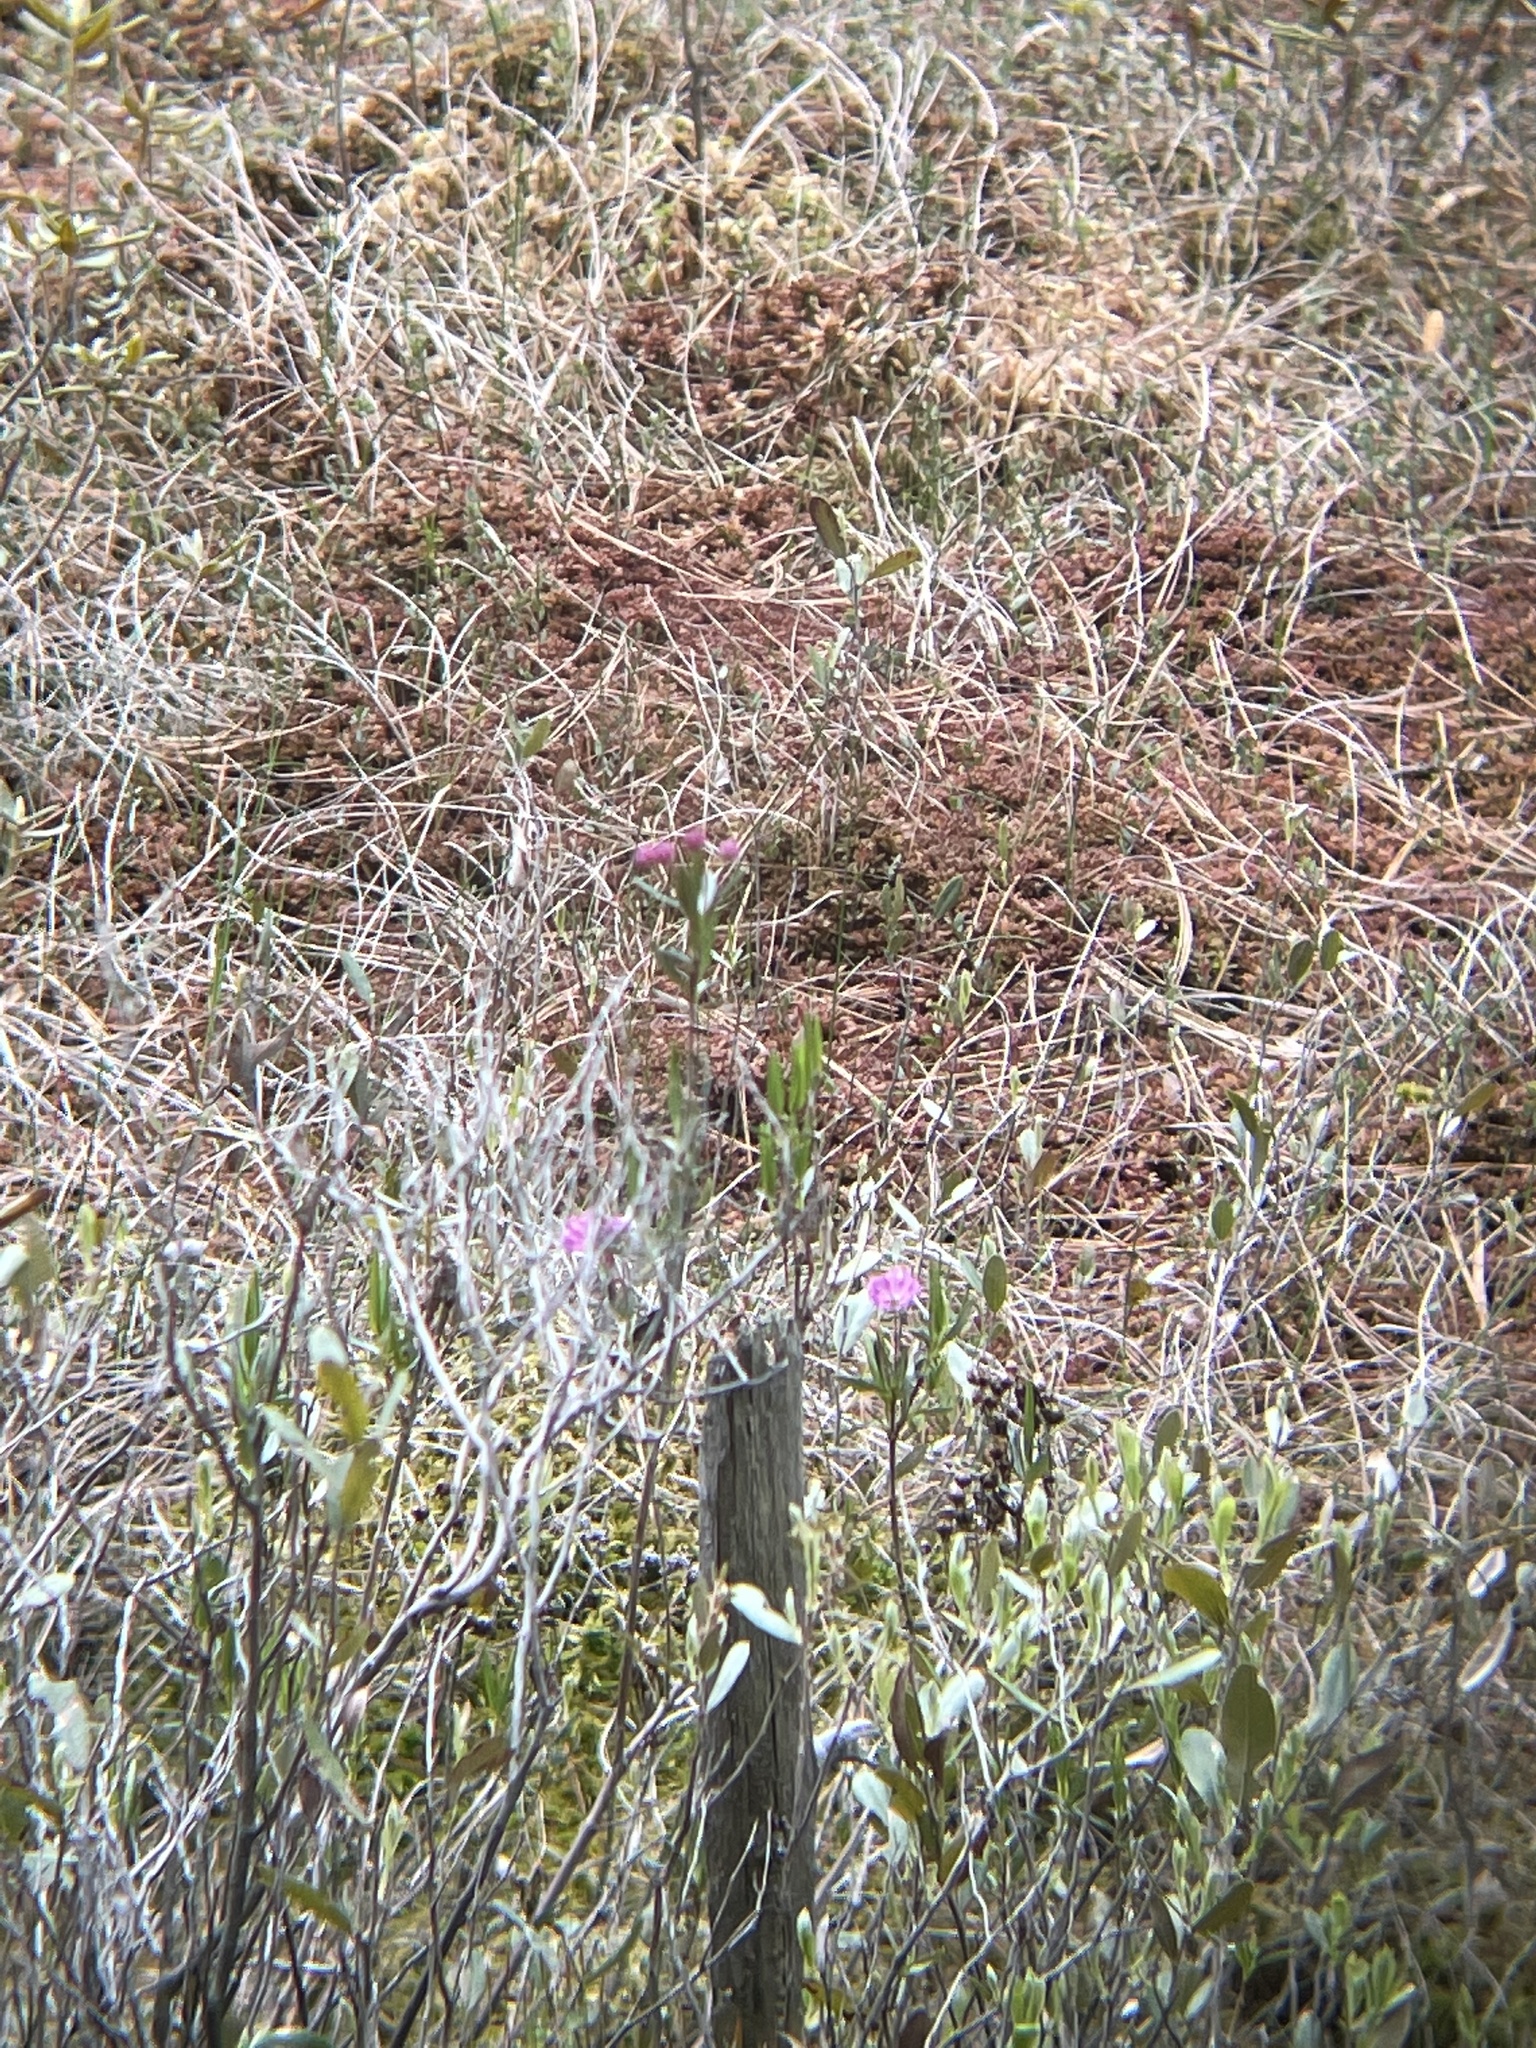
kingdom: Plantae
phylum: Tracheophyta
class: Magnoliopsida
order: Ericales
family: Ericaceae
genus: Kalmia
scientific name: Kalmia polifolia
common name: Bog-laurel
